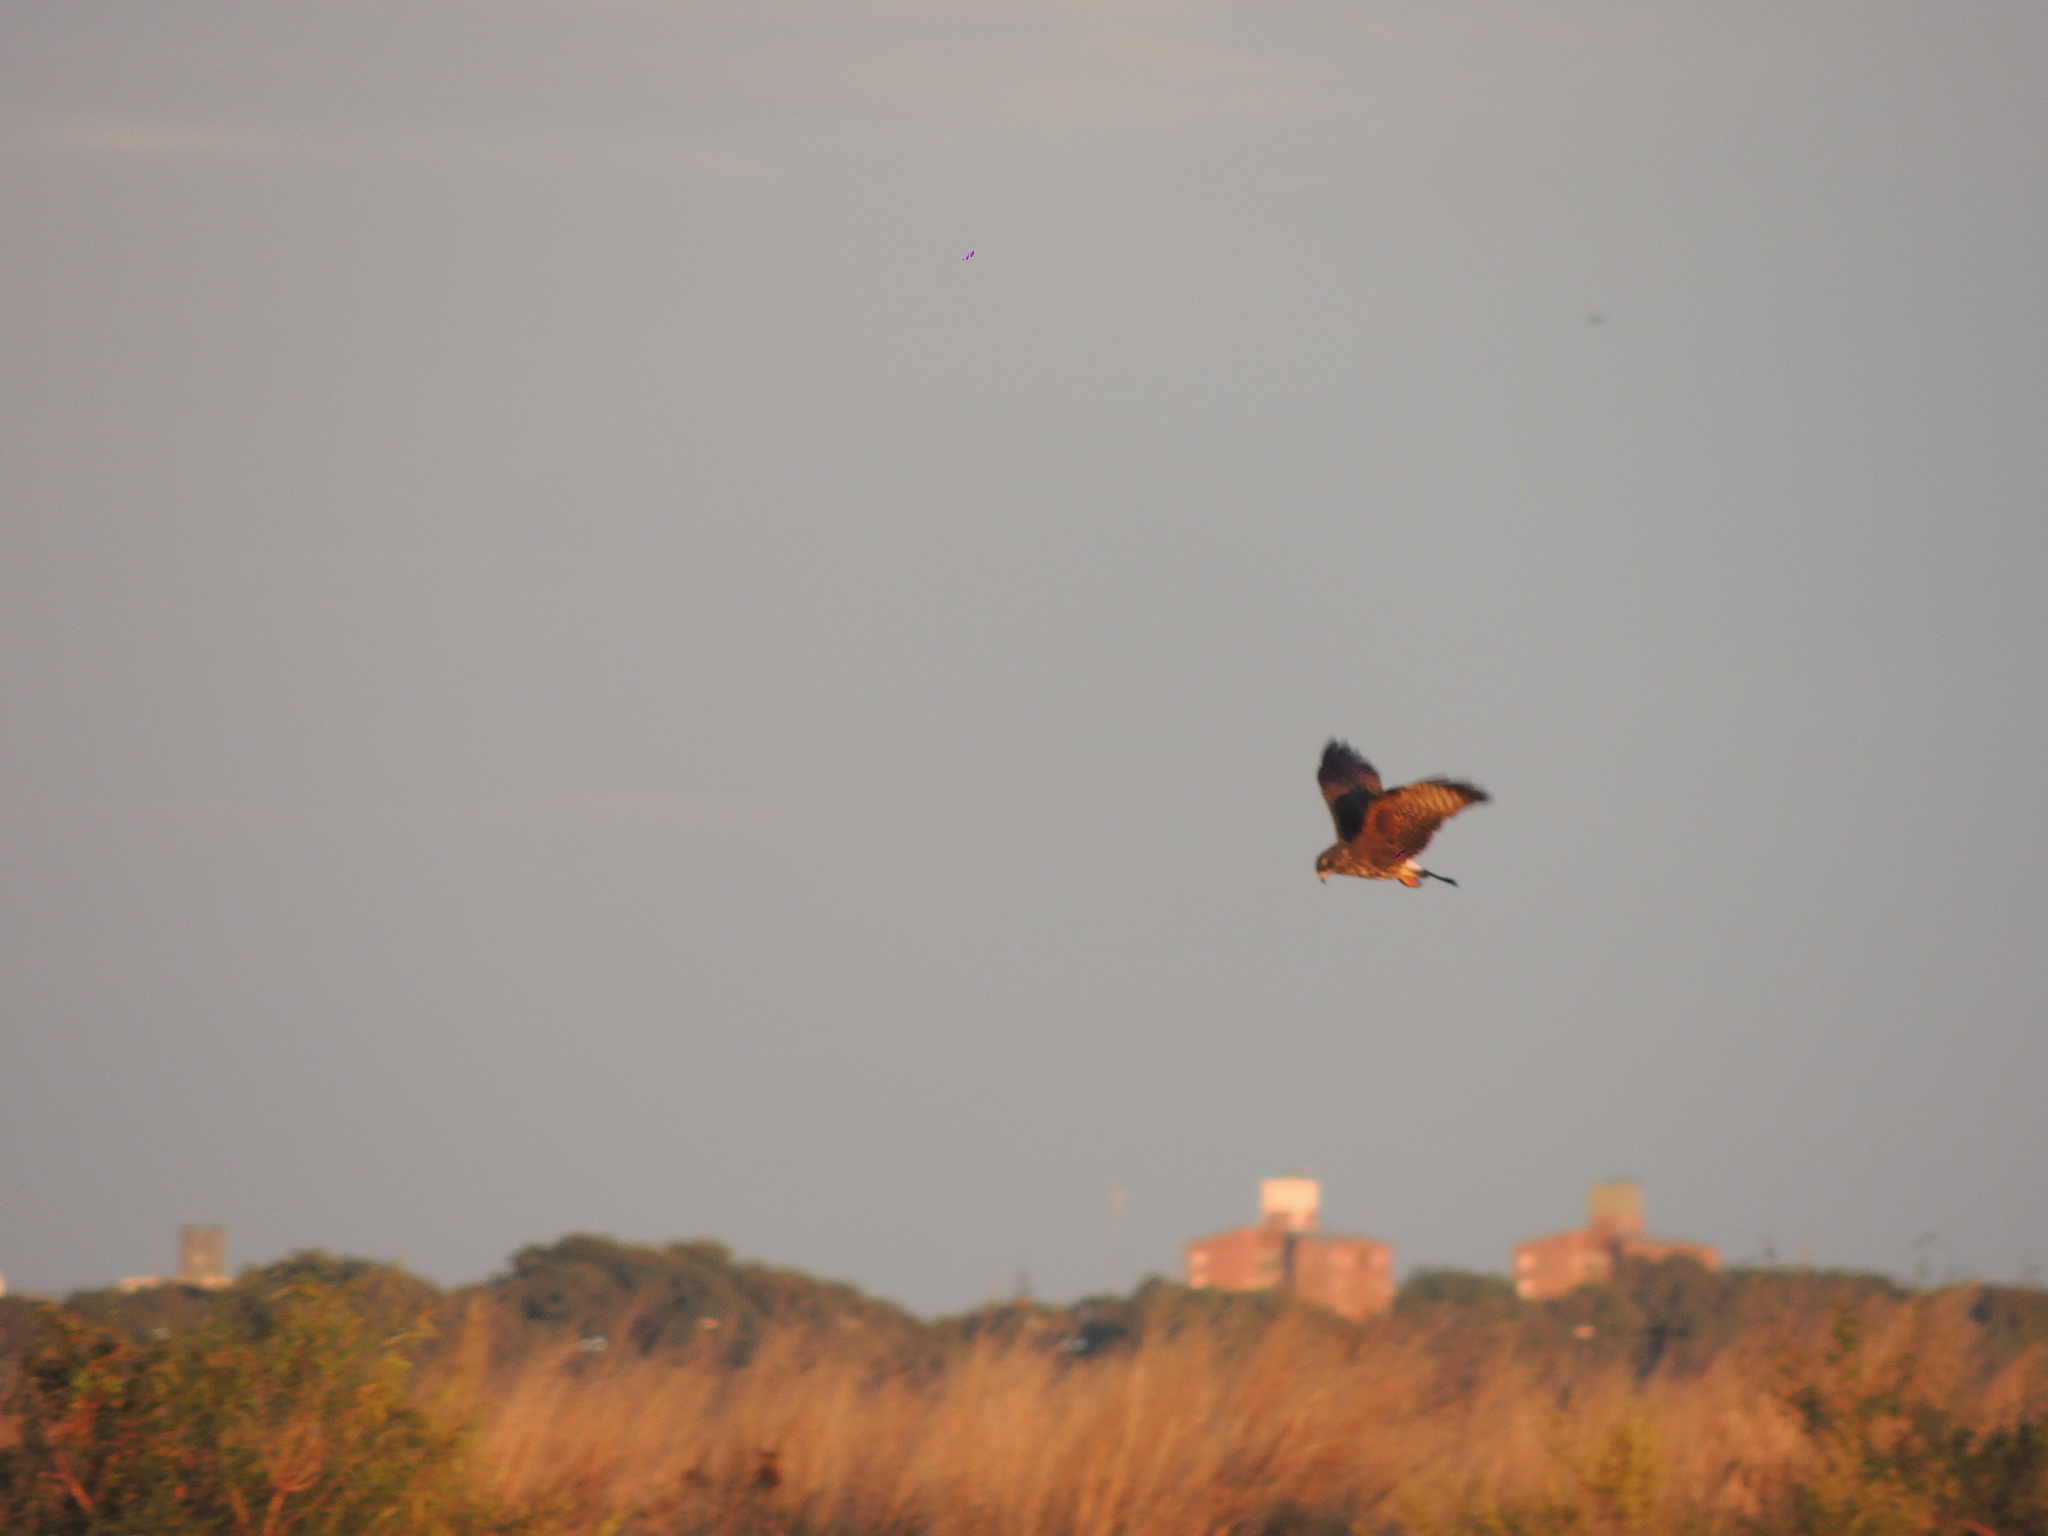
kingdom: Animalia
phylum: Chordata
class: Aves
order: Accipitriformes
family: Accipitridae
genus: Rostrhamus
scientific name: Rostrhamus sociabilis
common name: Snail kite
